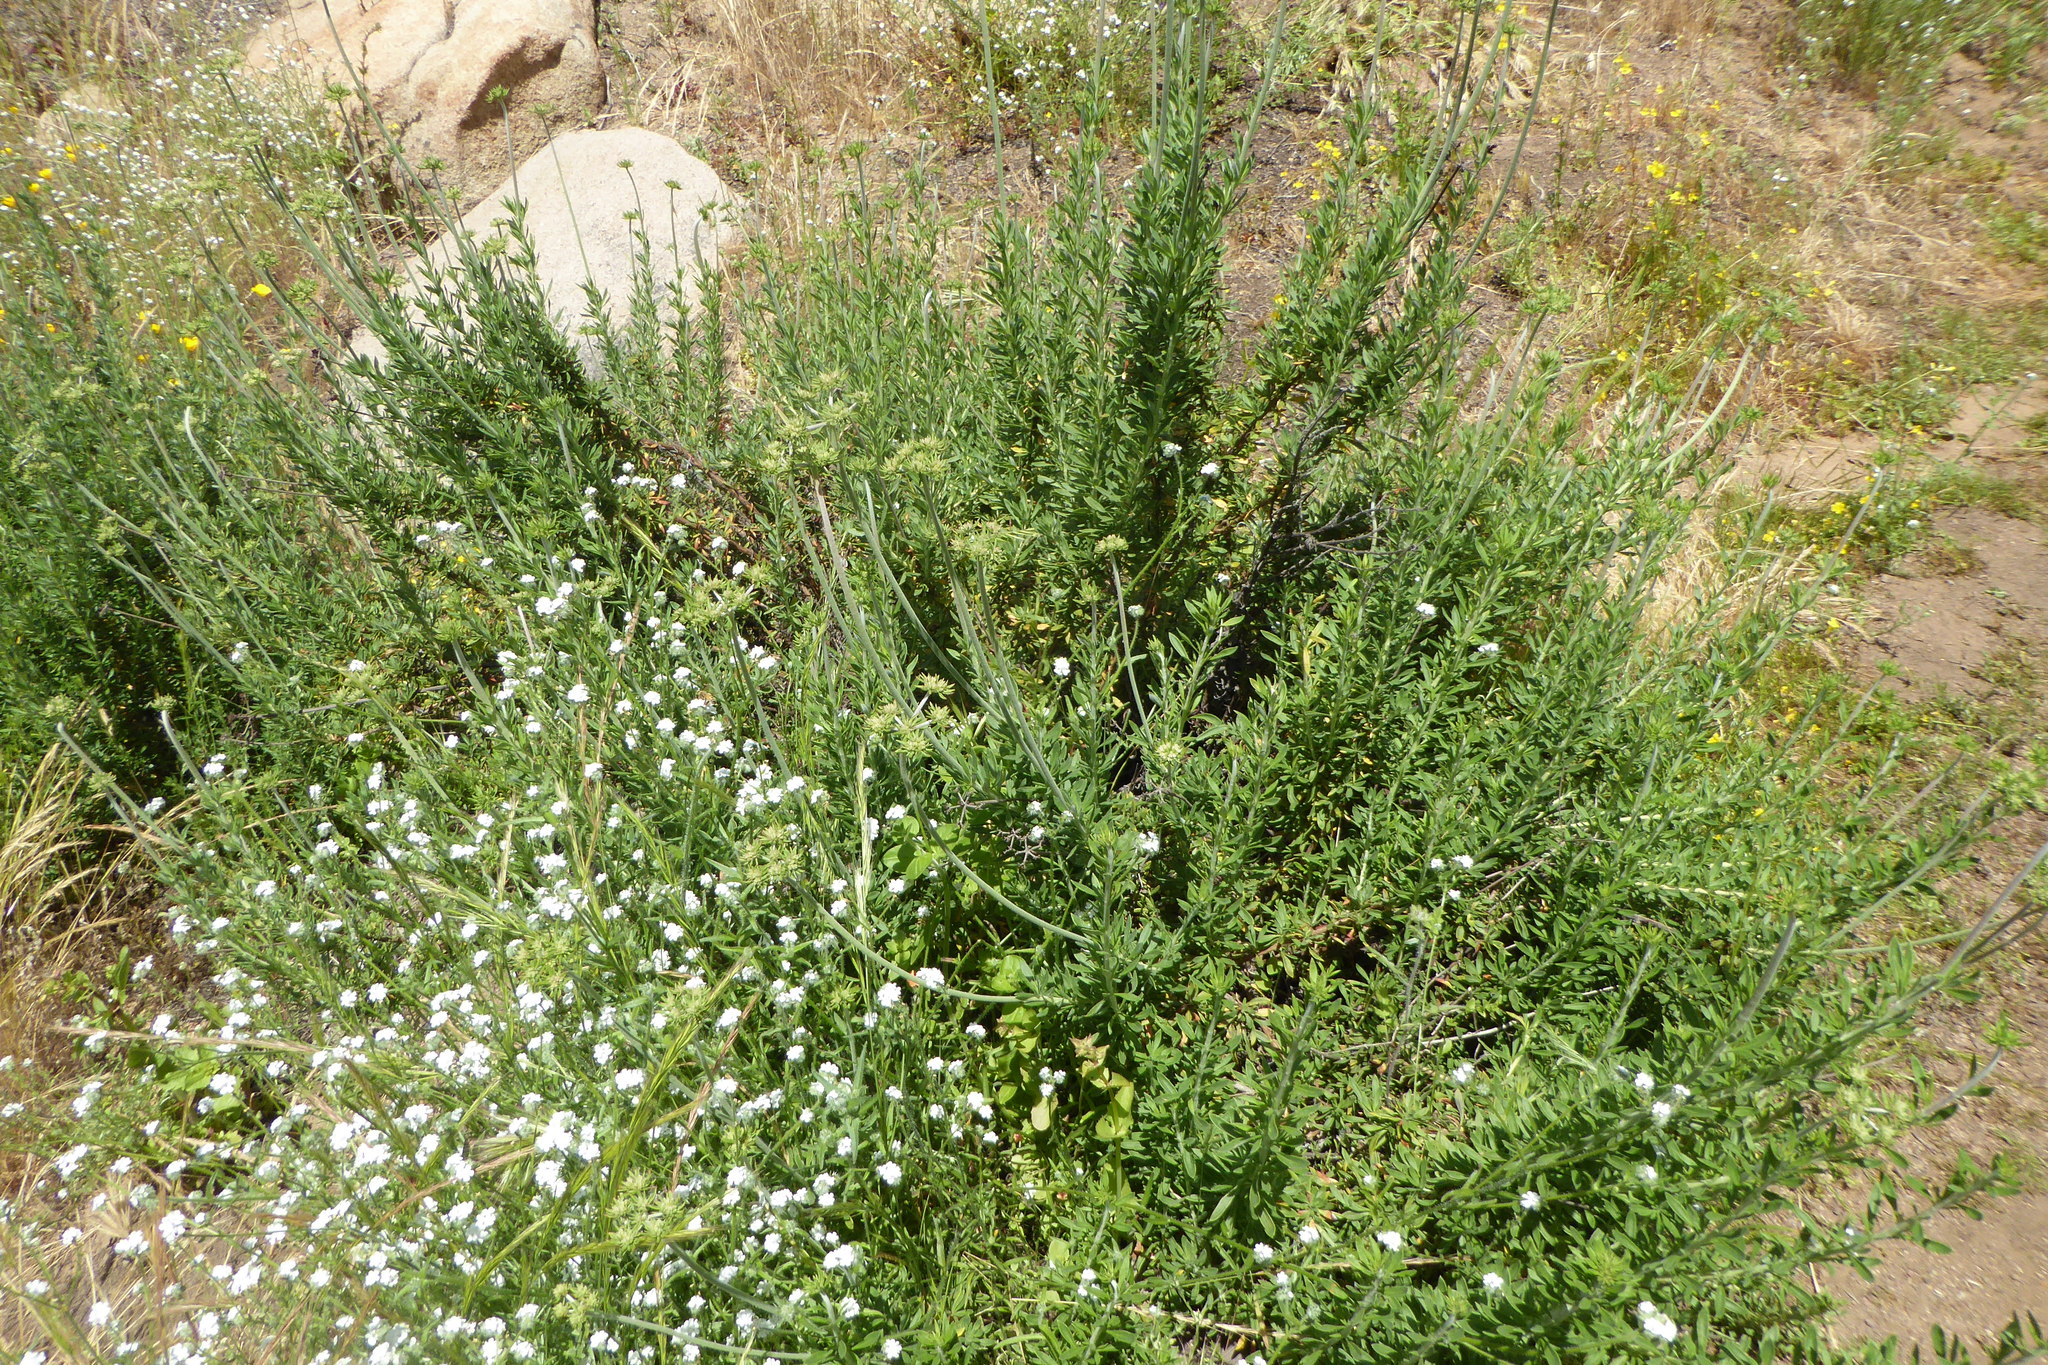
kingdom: Plantae
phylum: Tracheophyta
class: Magnoliopsida
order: Caryophyllales
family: Polygonaceae
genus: Eriogonum
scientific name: Eriogonum fasciculatum
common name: California wild buckwheat
